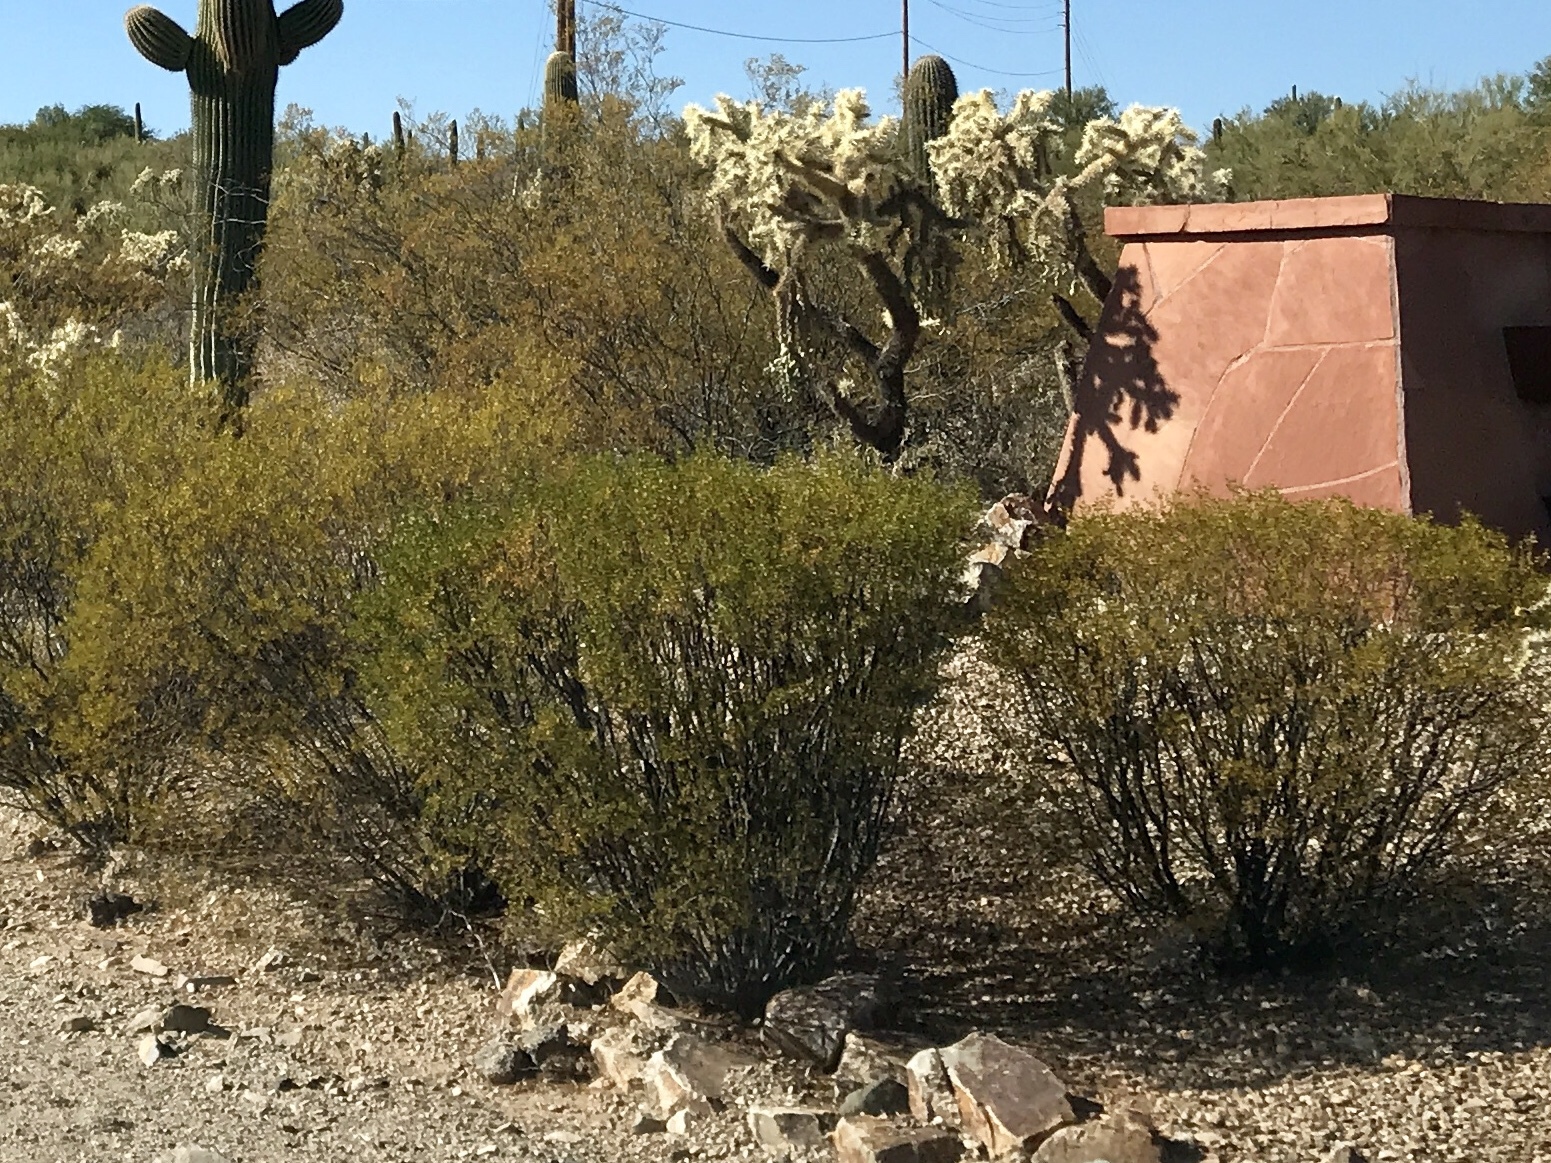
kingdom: Plantae
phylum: Tracheophyta
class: Magnoliopsida
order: Zygophyllales
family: Zygophyllaceae
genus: Larrea
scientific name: Larrea tridentata
